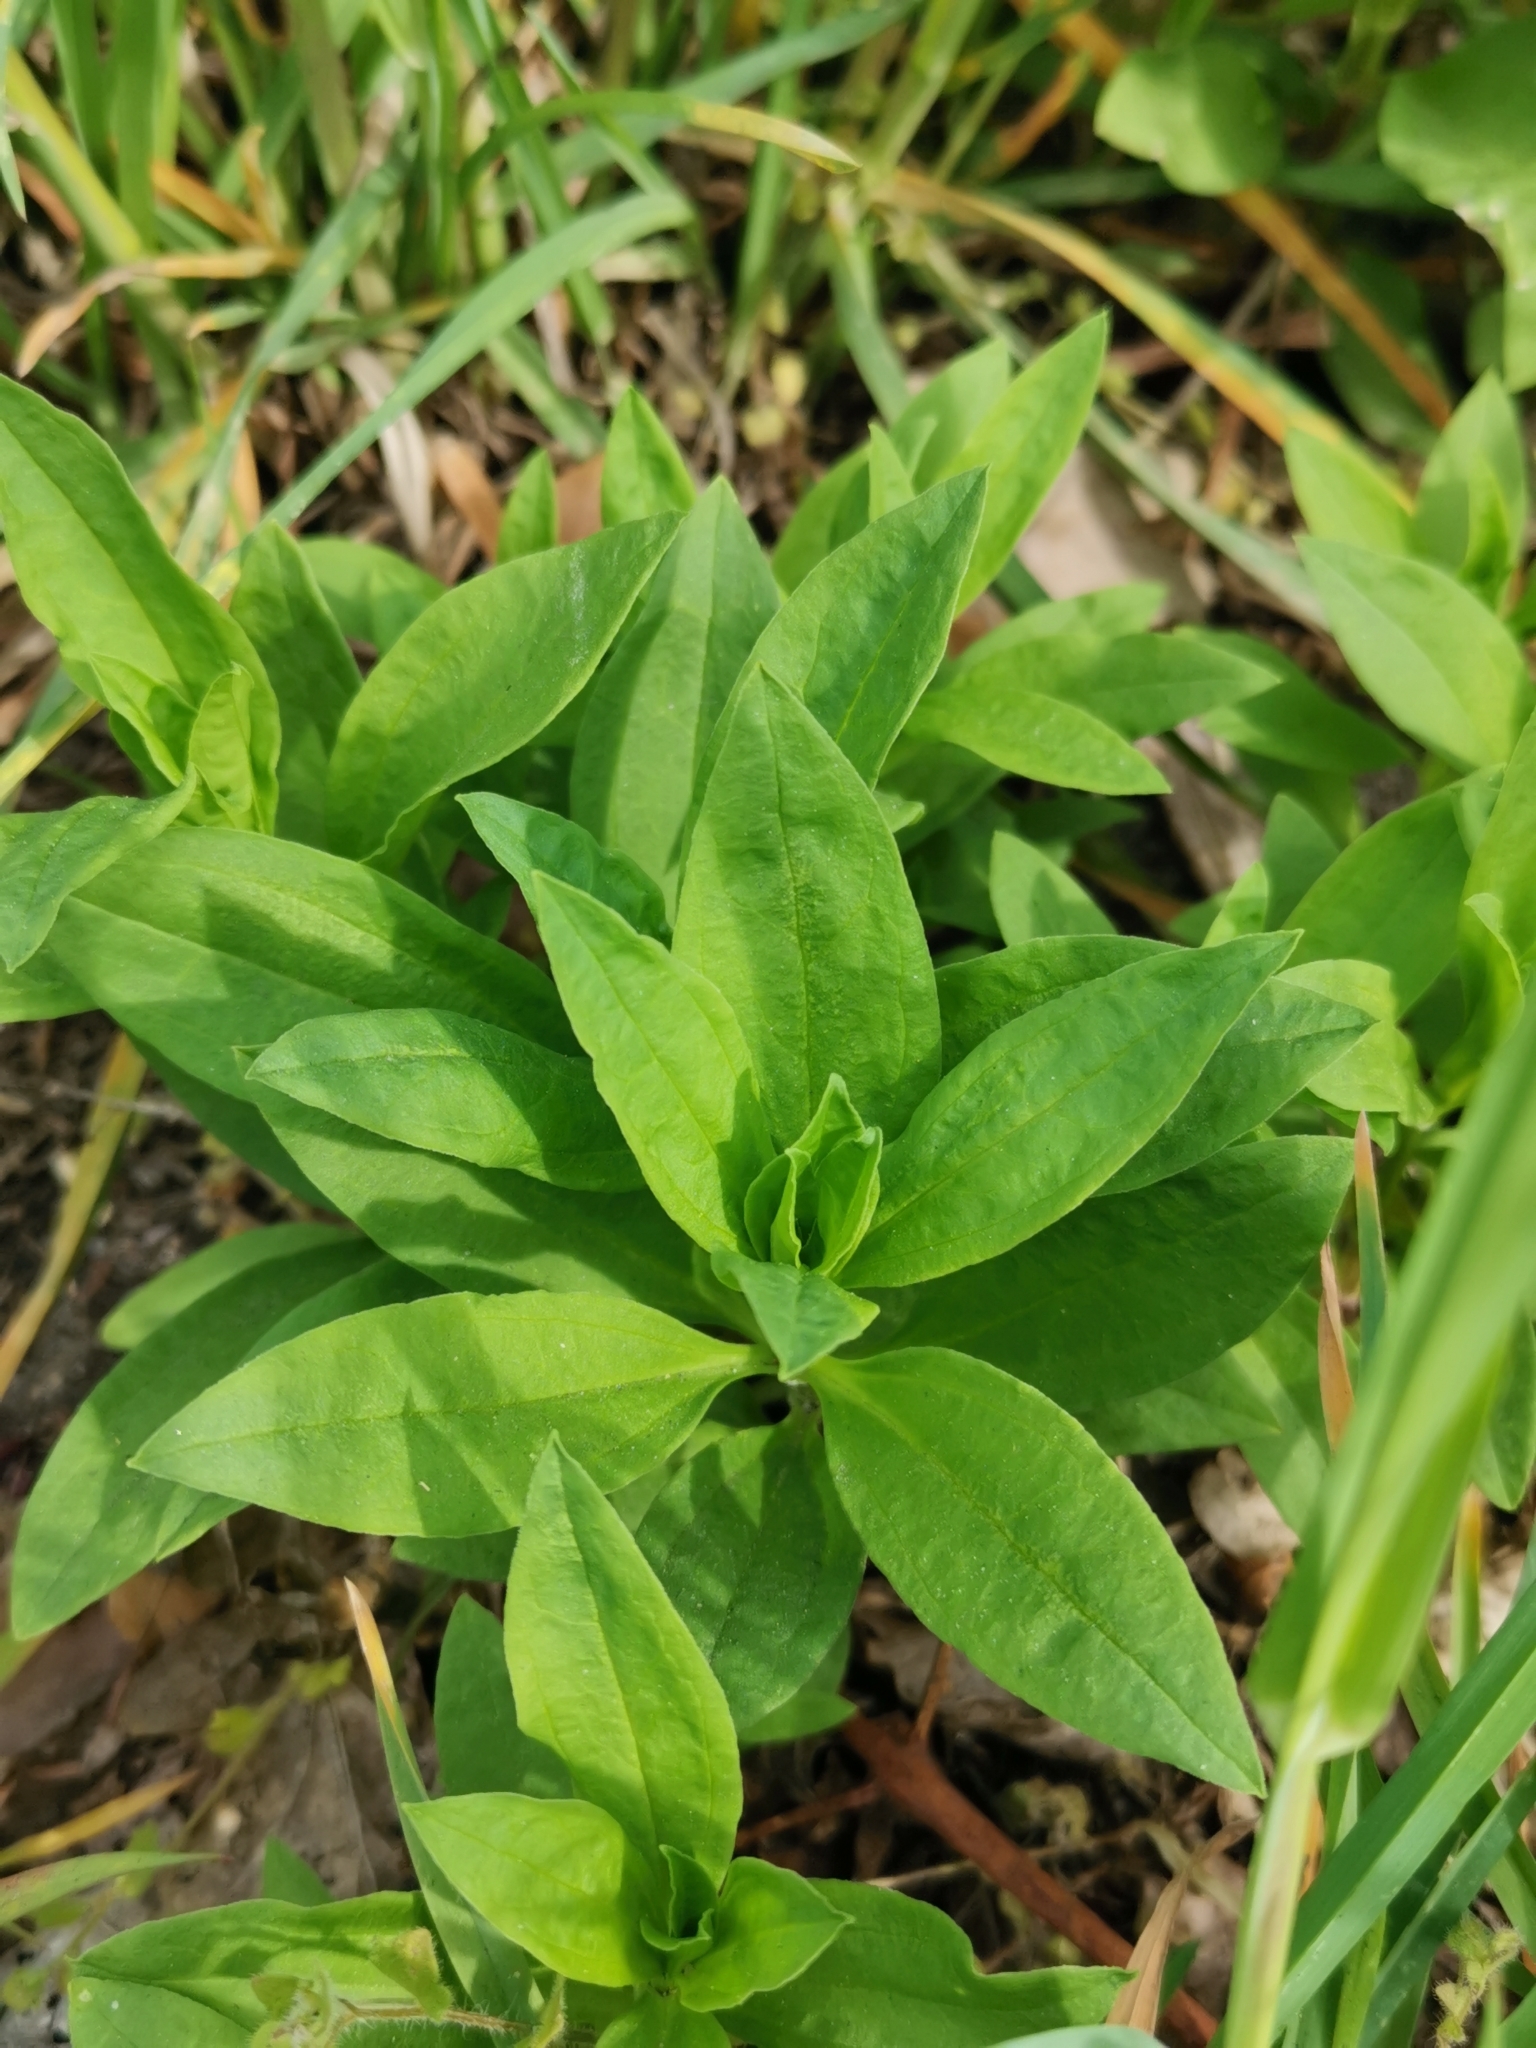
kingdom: Plantae
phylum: Tracheophyta
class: Magnoliopsida
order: Caryophyllales
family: Caryophyllaceae
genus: Saponaria
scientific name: Saponaria officinalis
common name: Soapwort
